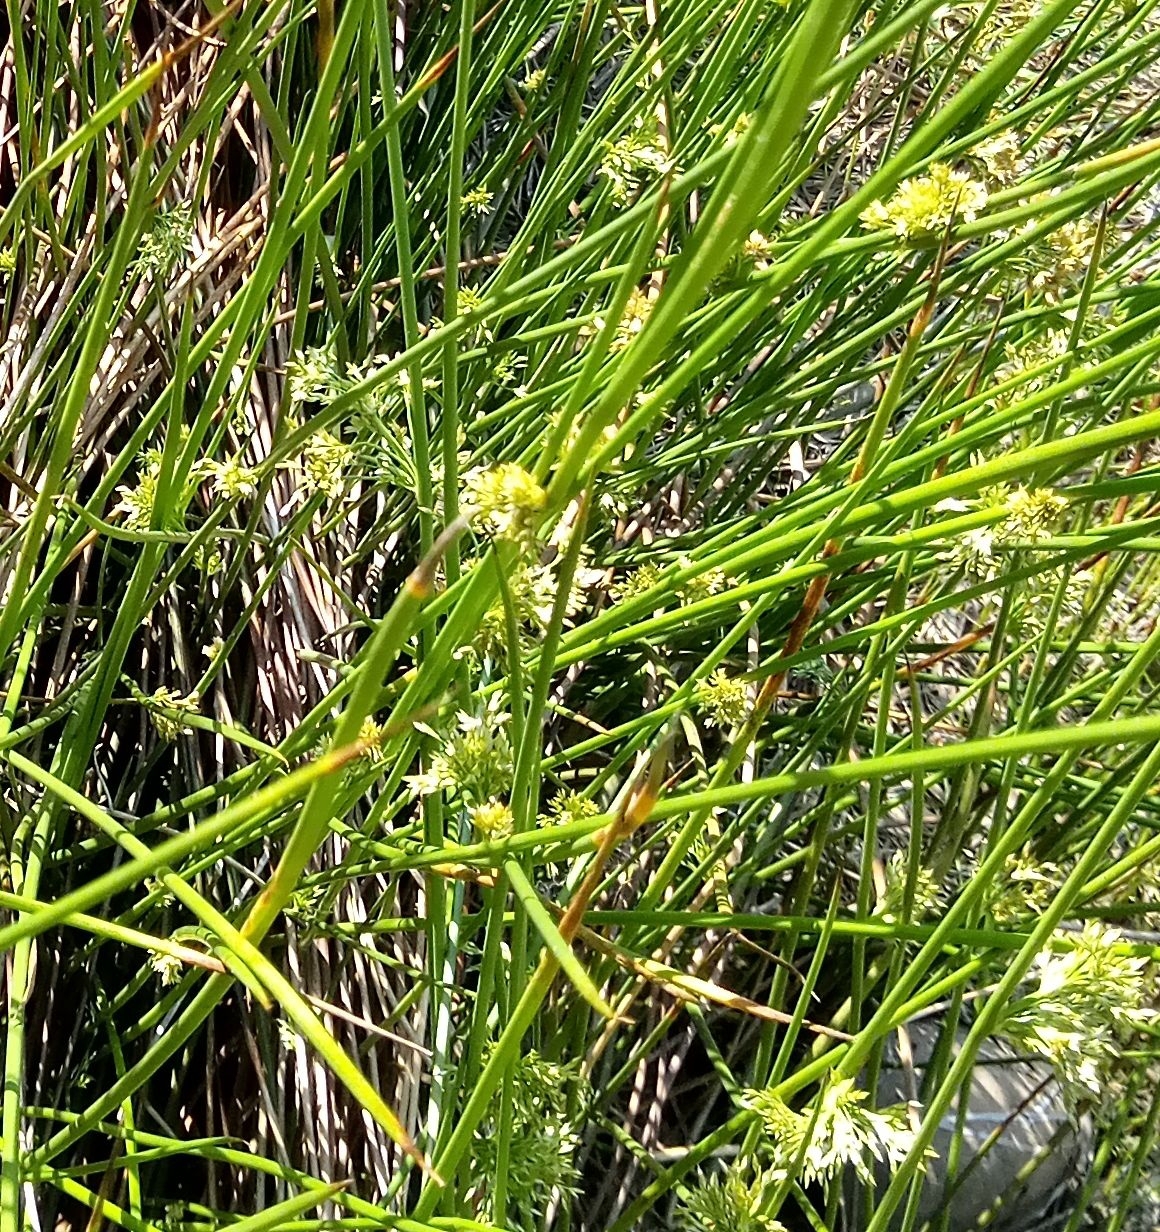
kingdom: Plantae
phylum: Tracheophyta
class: Liliopsida
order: Poales
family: Juncaceae
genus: Juncus
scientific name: Juncus effusus
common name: Soft rush
